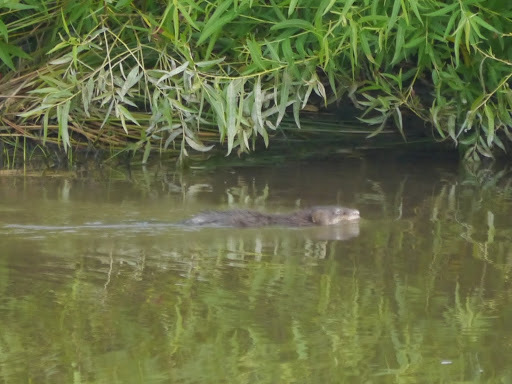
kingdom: Animalia
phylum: Chordata
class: Mammalia
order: Rodentia
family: Cricetidae
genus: Ondatra
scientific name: Ondatra zibethicus
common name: Muskrat
